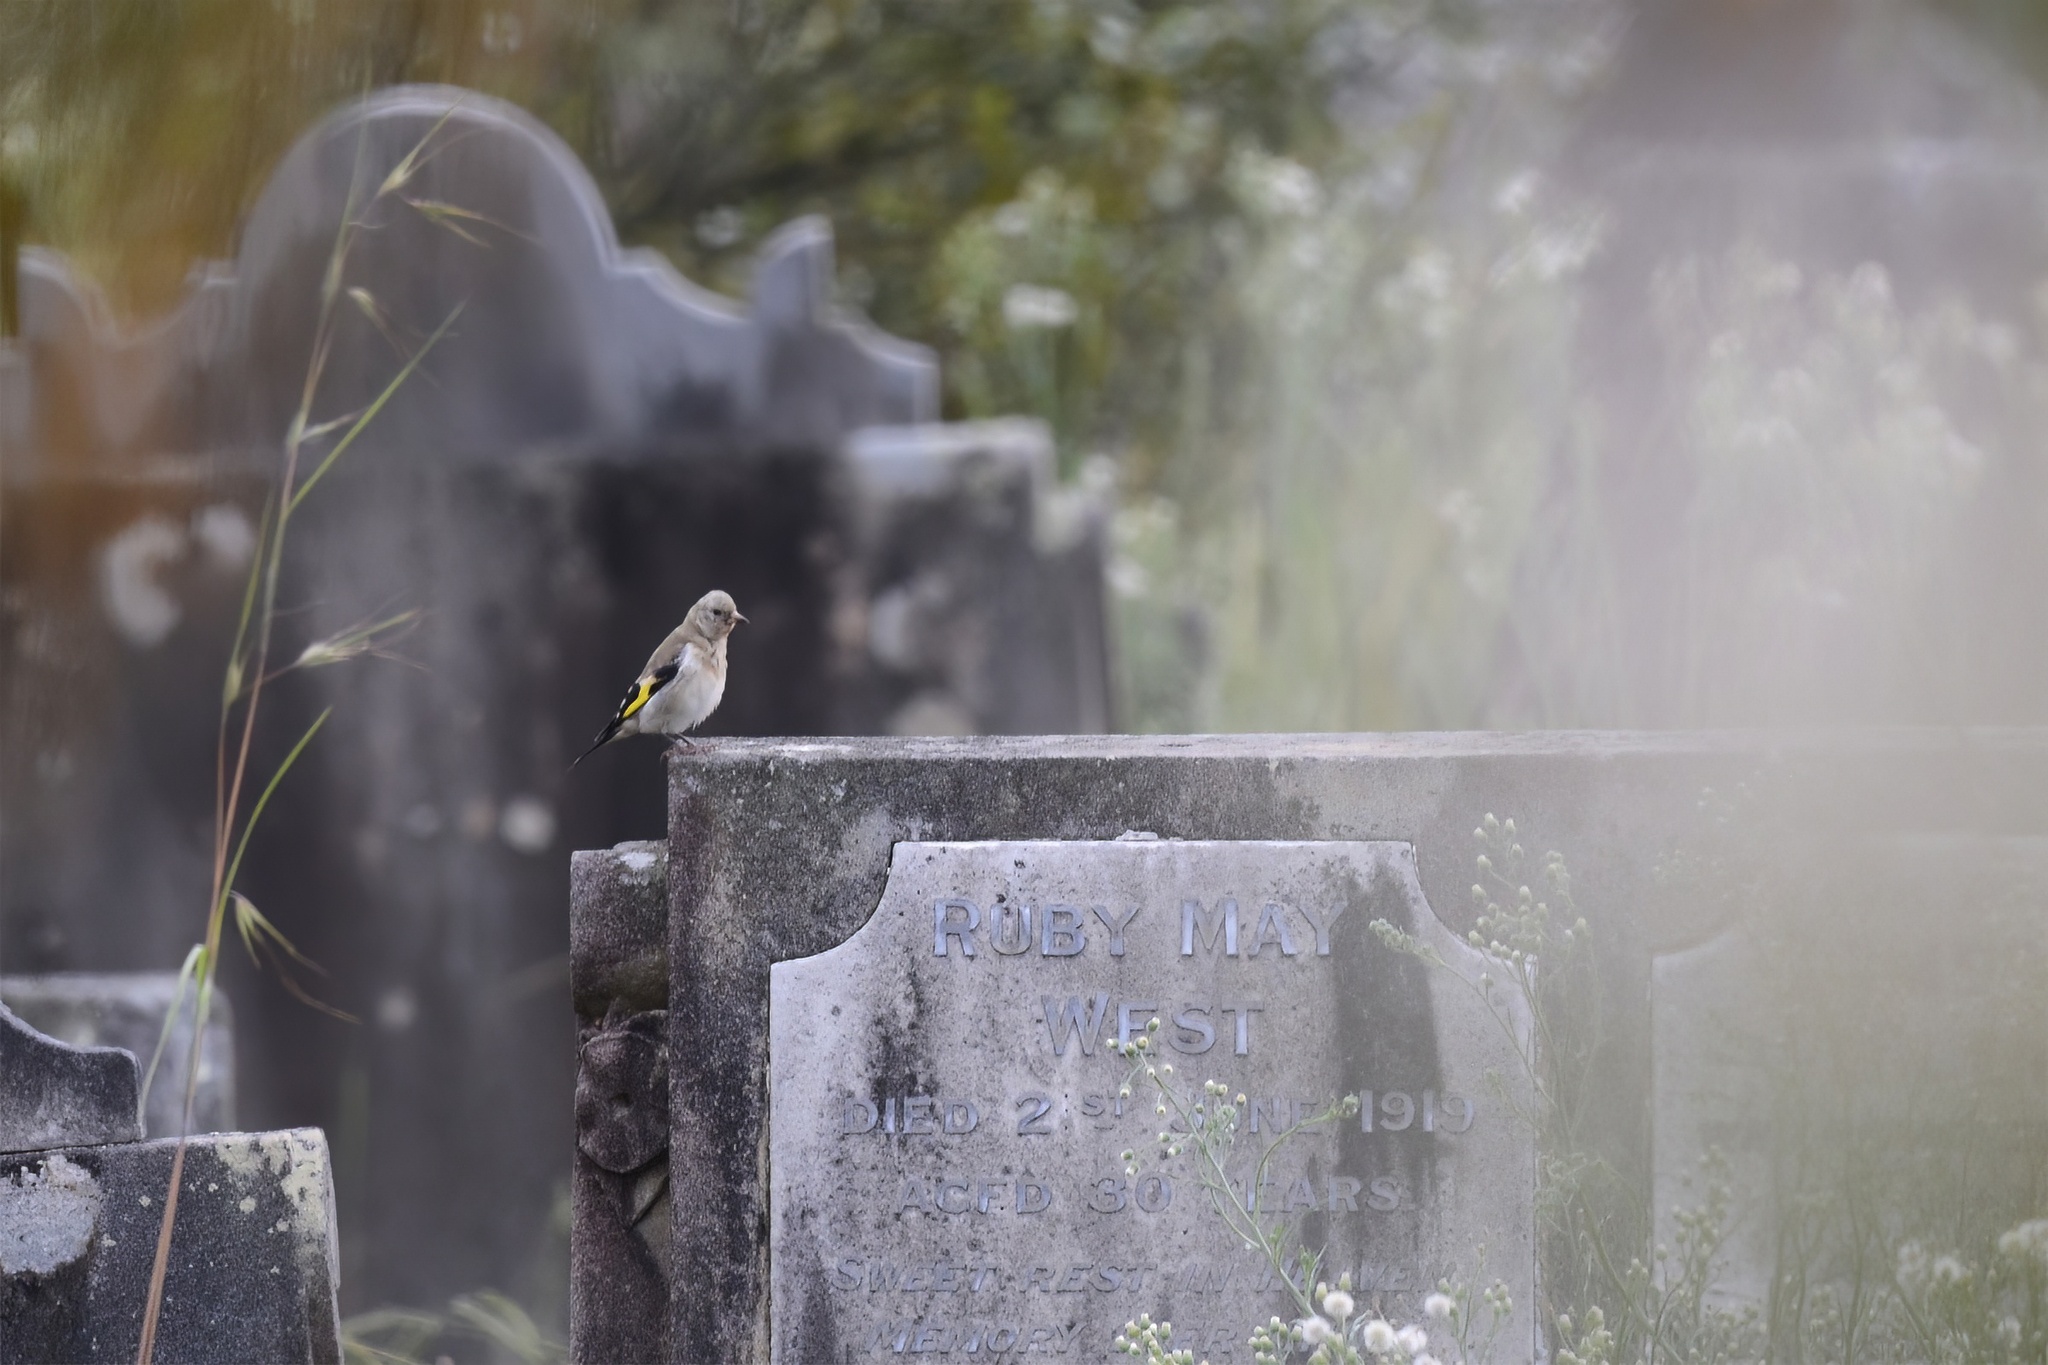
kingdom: Animalia
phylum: Chordata
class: Aves
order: Passeriformes
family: Fringillidae
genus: Carduelis
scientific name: Carduelis carduelis
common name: European goldfinch
